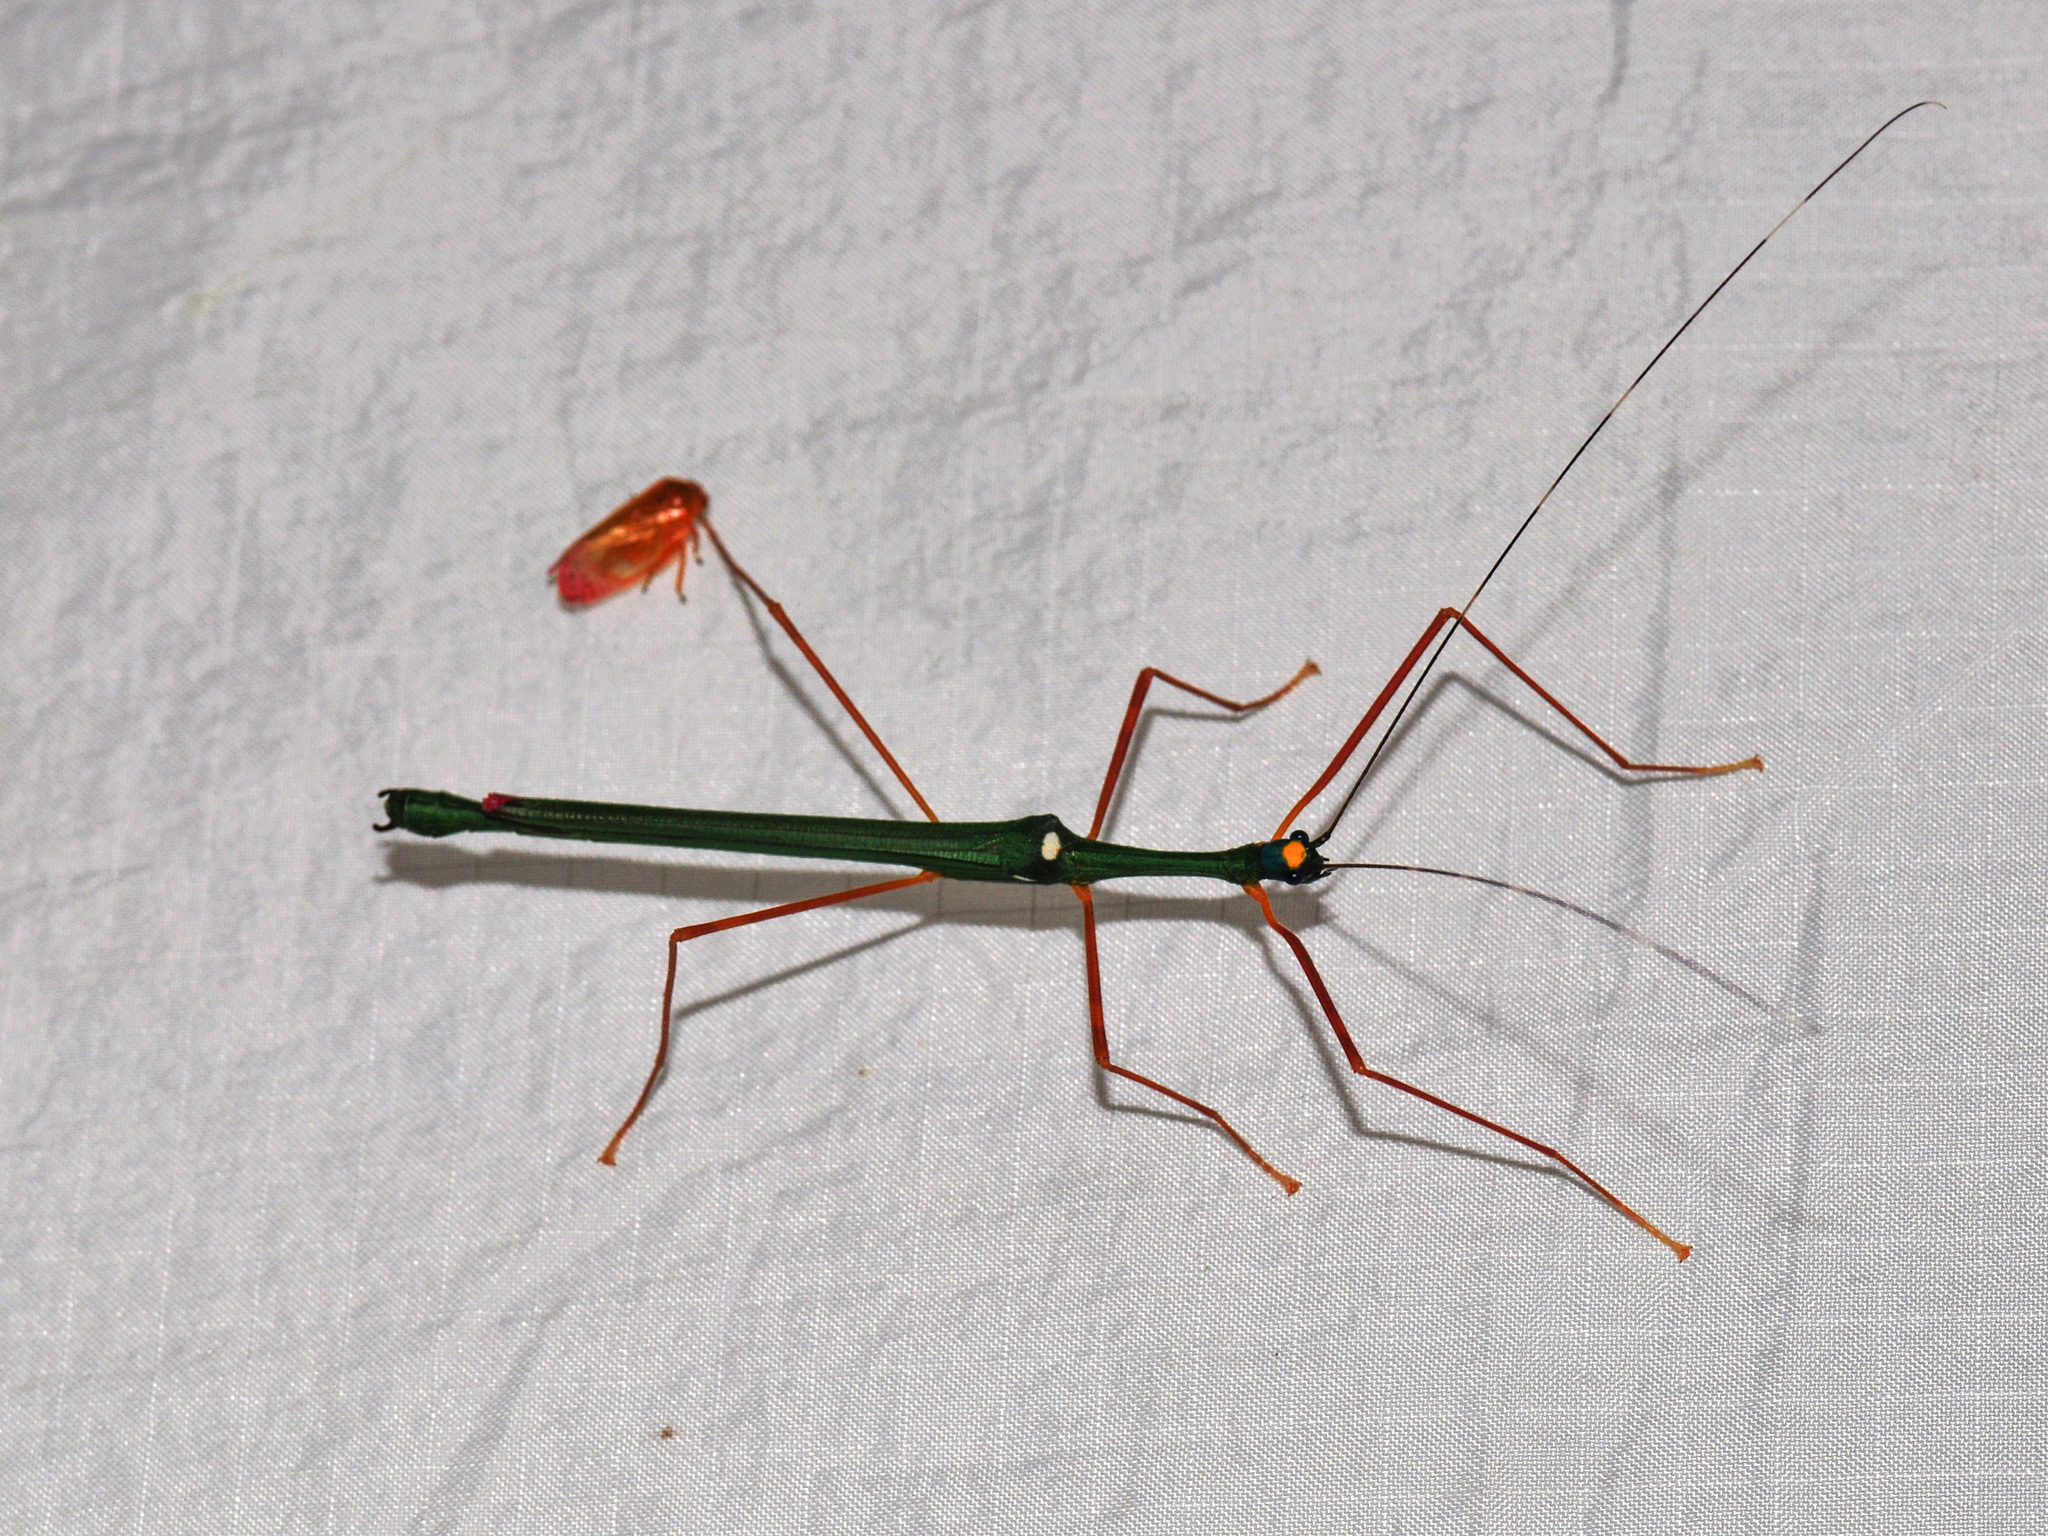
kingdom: Animalia
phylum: Arthropoda
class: Insecta
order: Phasmida
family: Lonchodidae
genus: Marmessoidea
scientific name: Marmessoidea rosea
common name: Yellow-spotted flying stick
